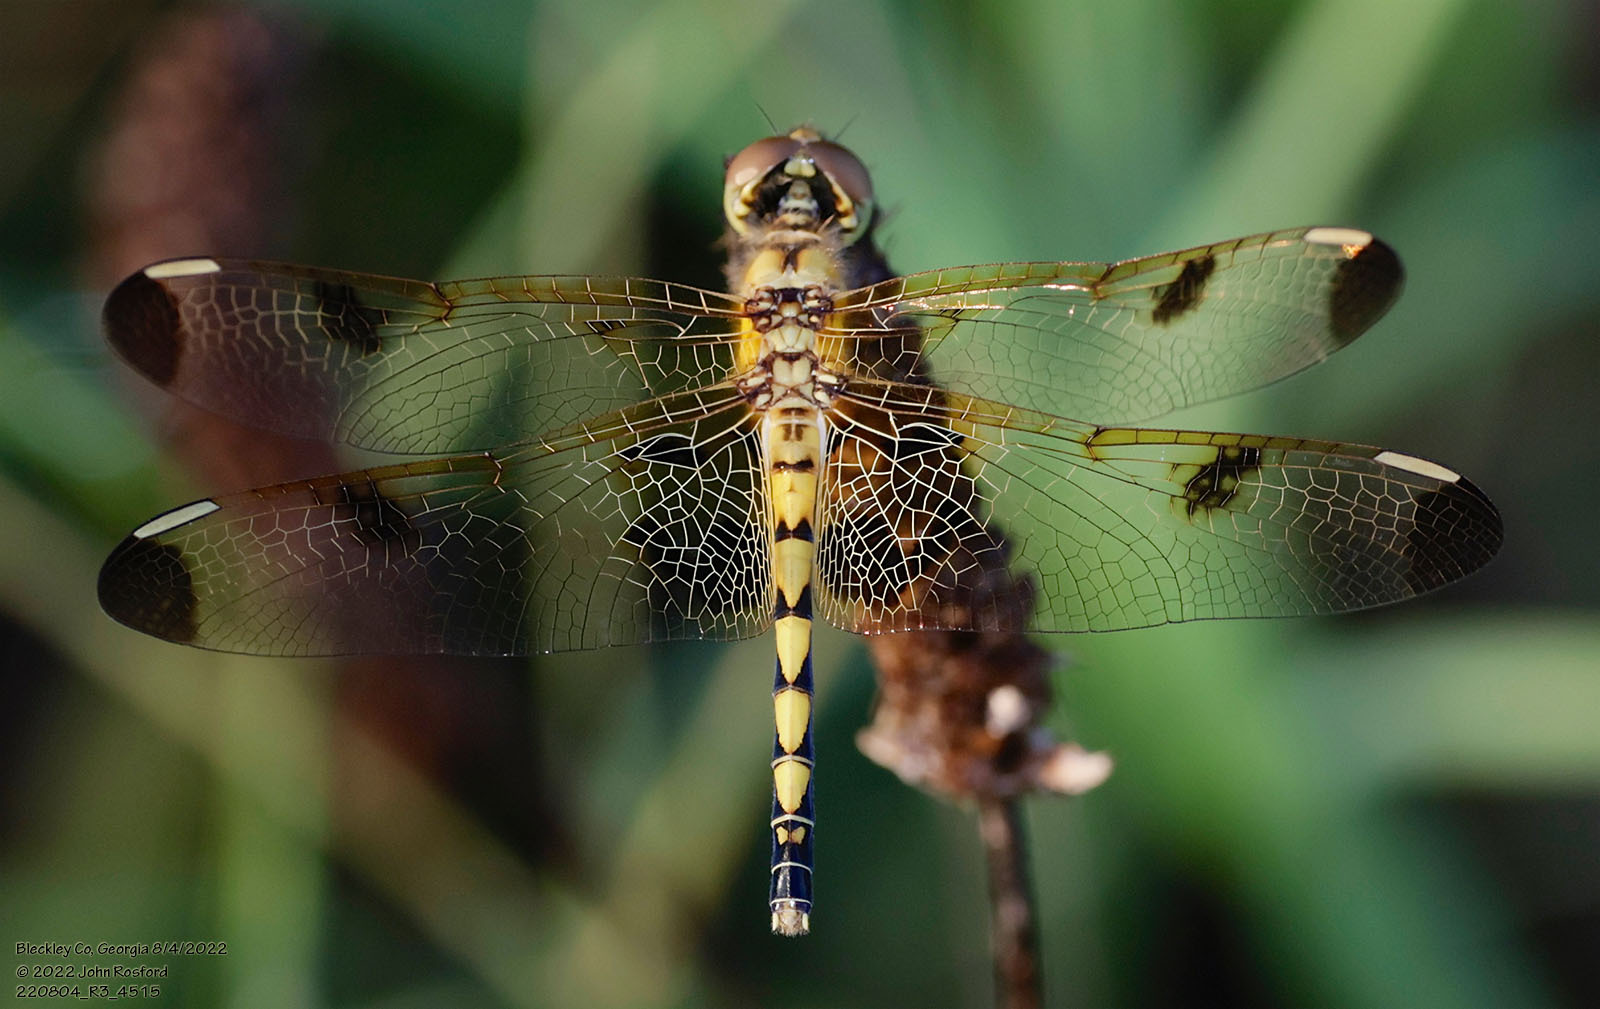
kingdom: Animalia
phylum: Arthropoda
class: Insecta
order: Odonata
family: Libellulidae
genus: Celithemis
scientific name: Celithemis elisa
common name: Calico pennant
